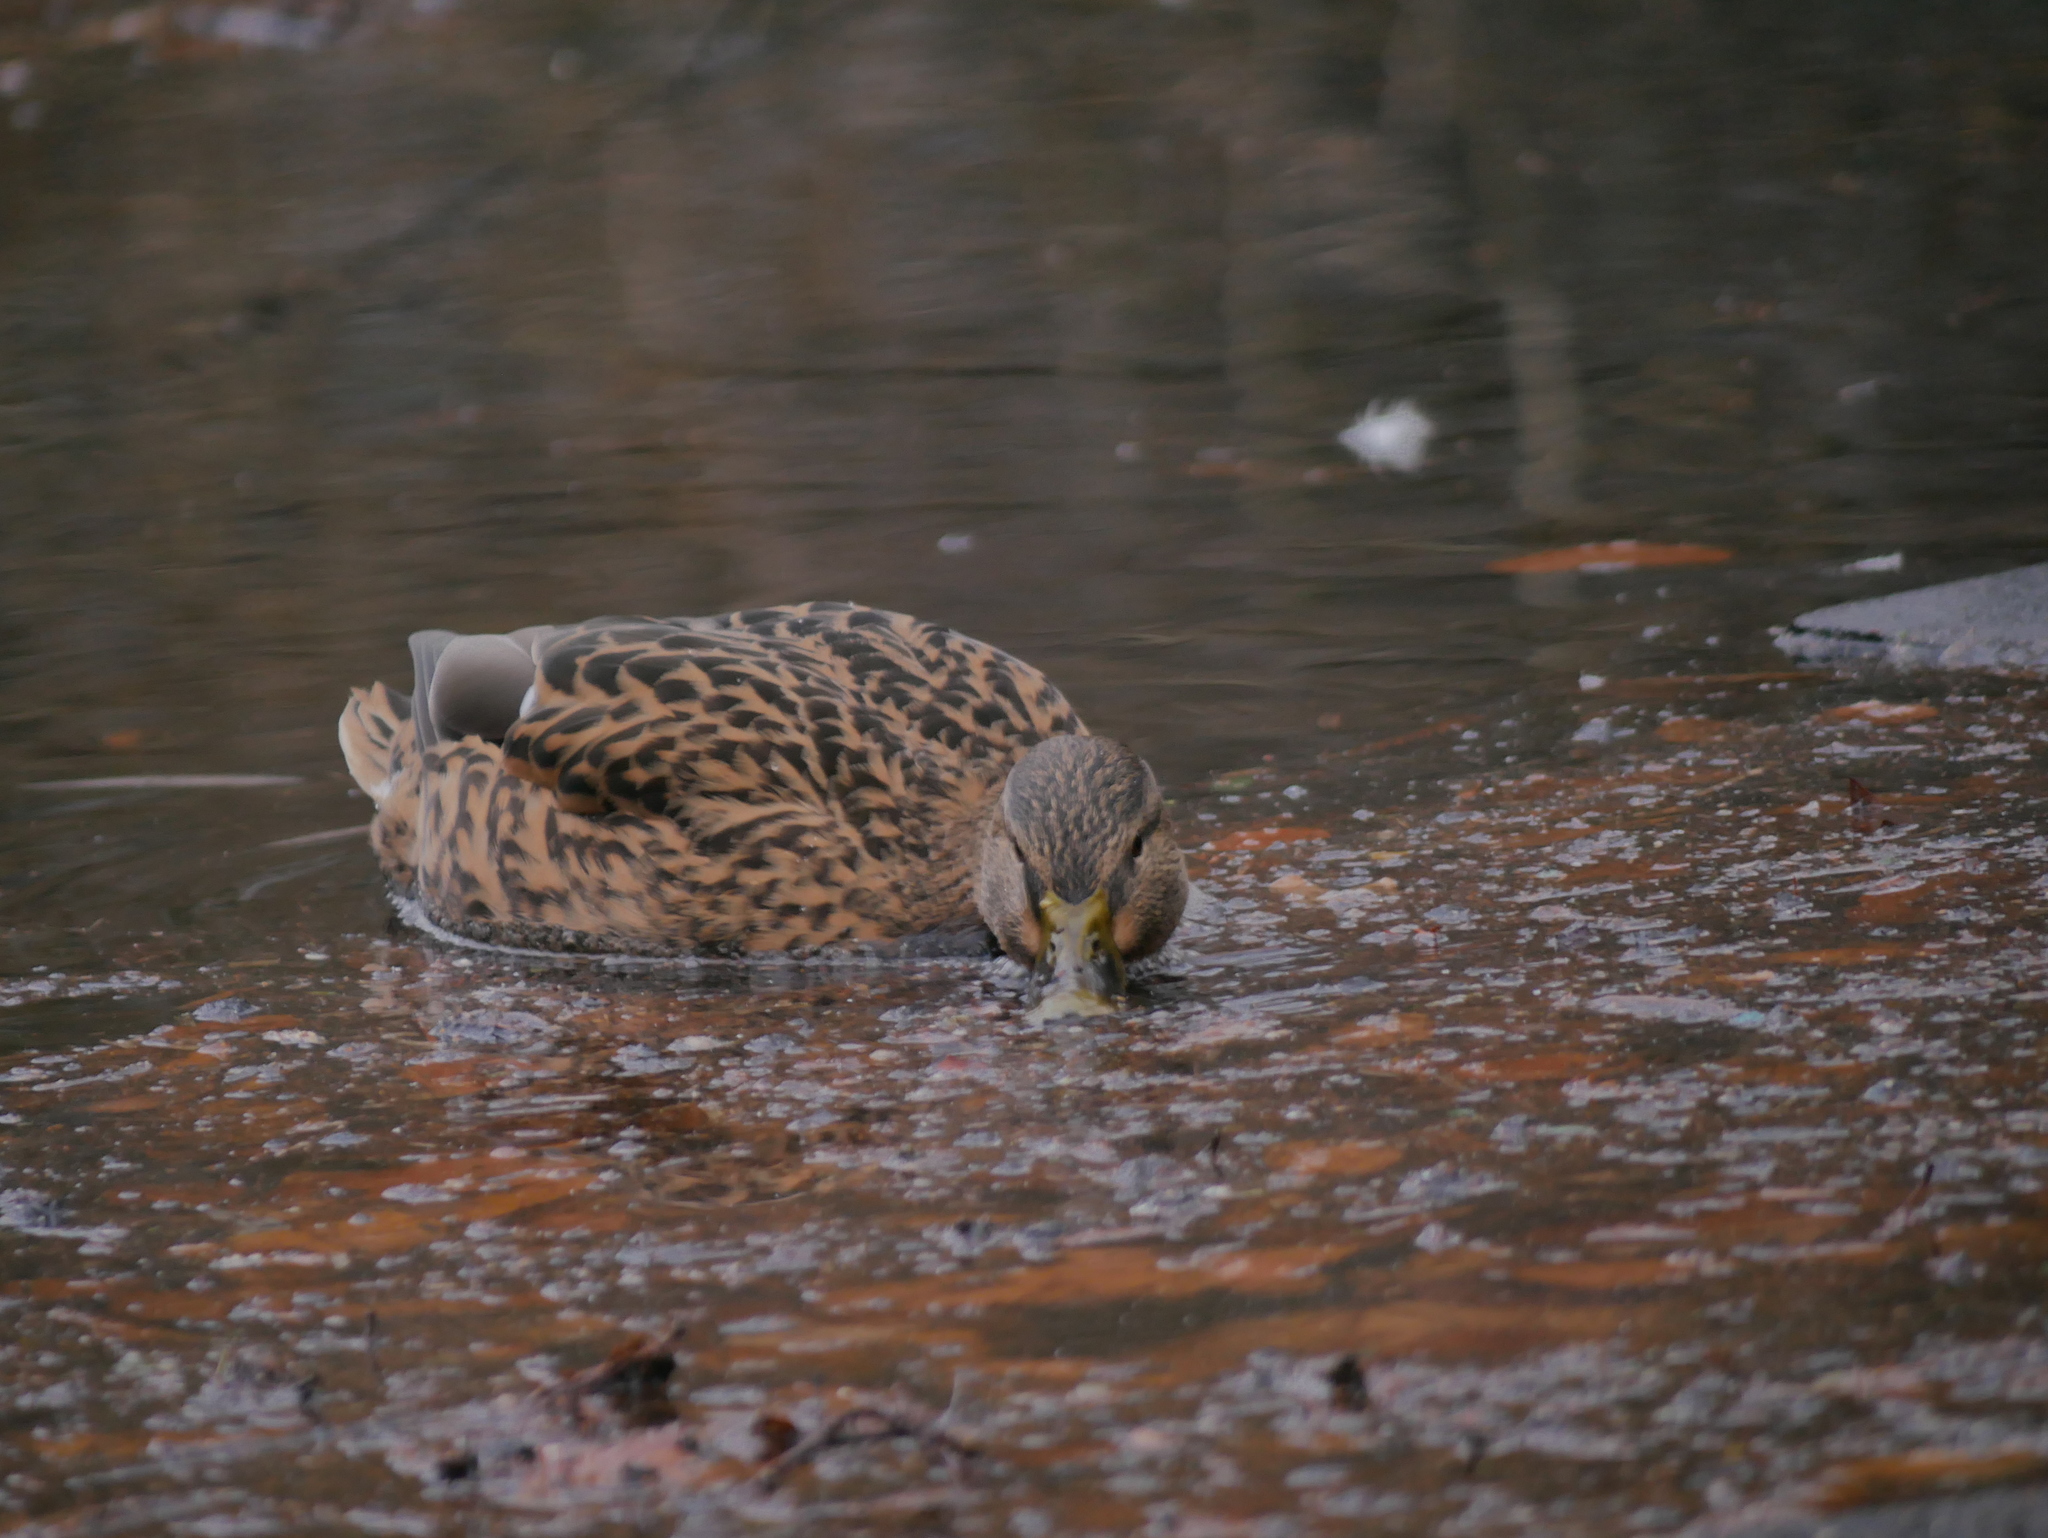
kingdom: Animalia
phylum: Chordata
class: Aves
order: Anseriformes
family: Anatidae
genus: Anas
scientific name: Anas platyrhynchos
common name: Mallard
